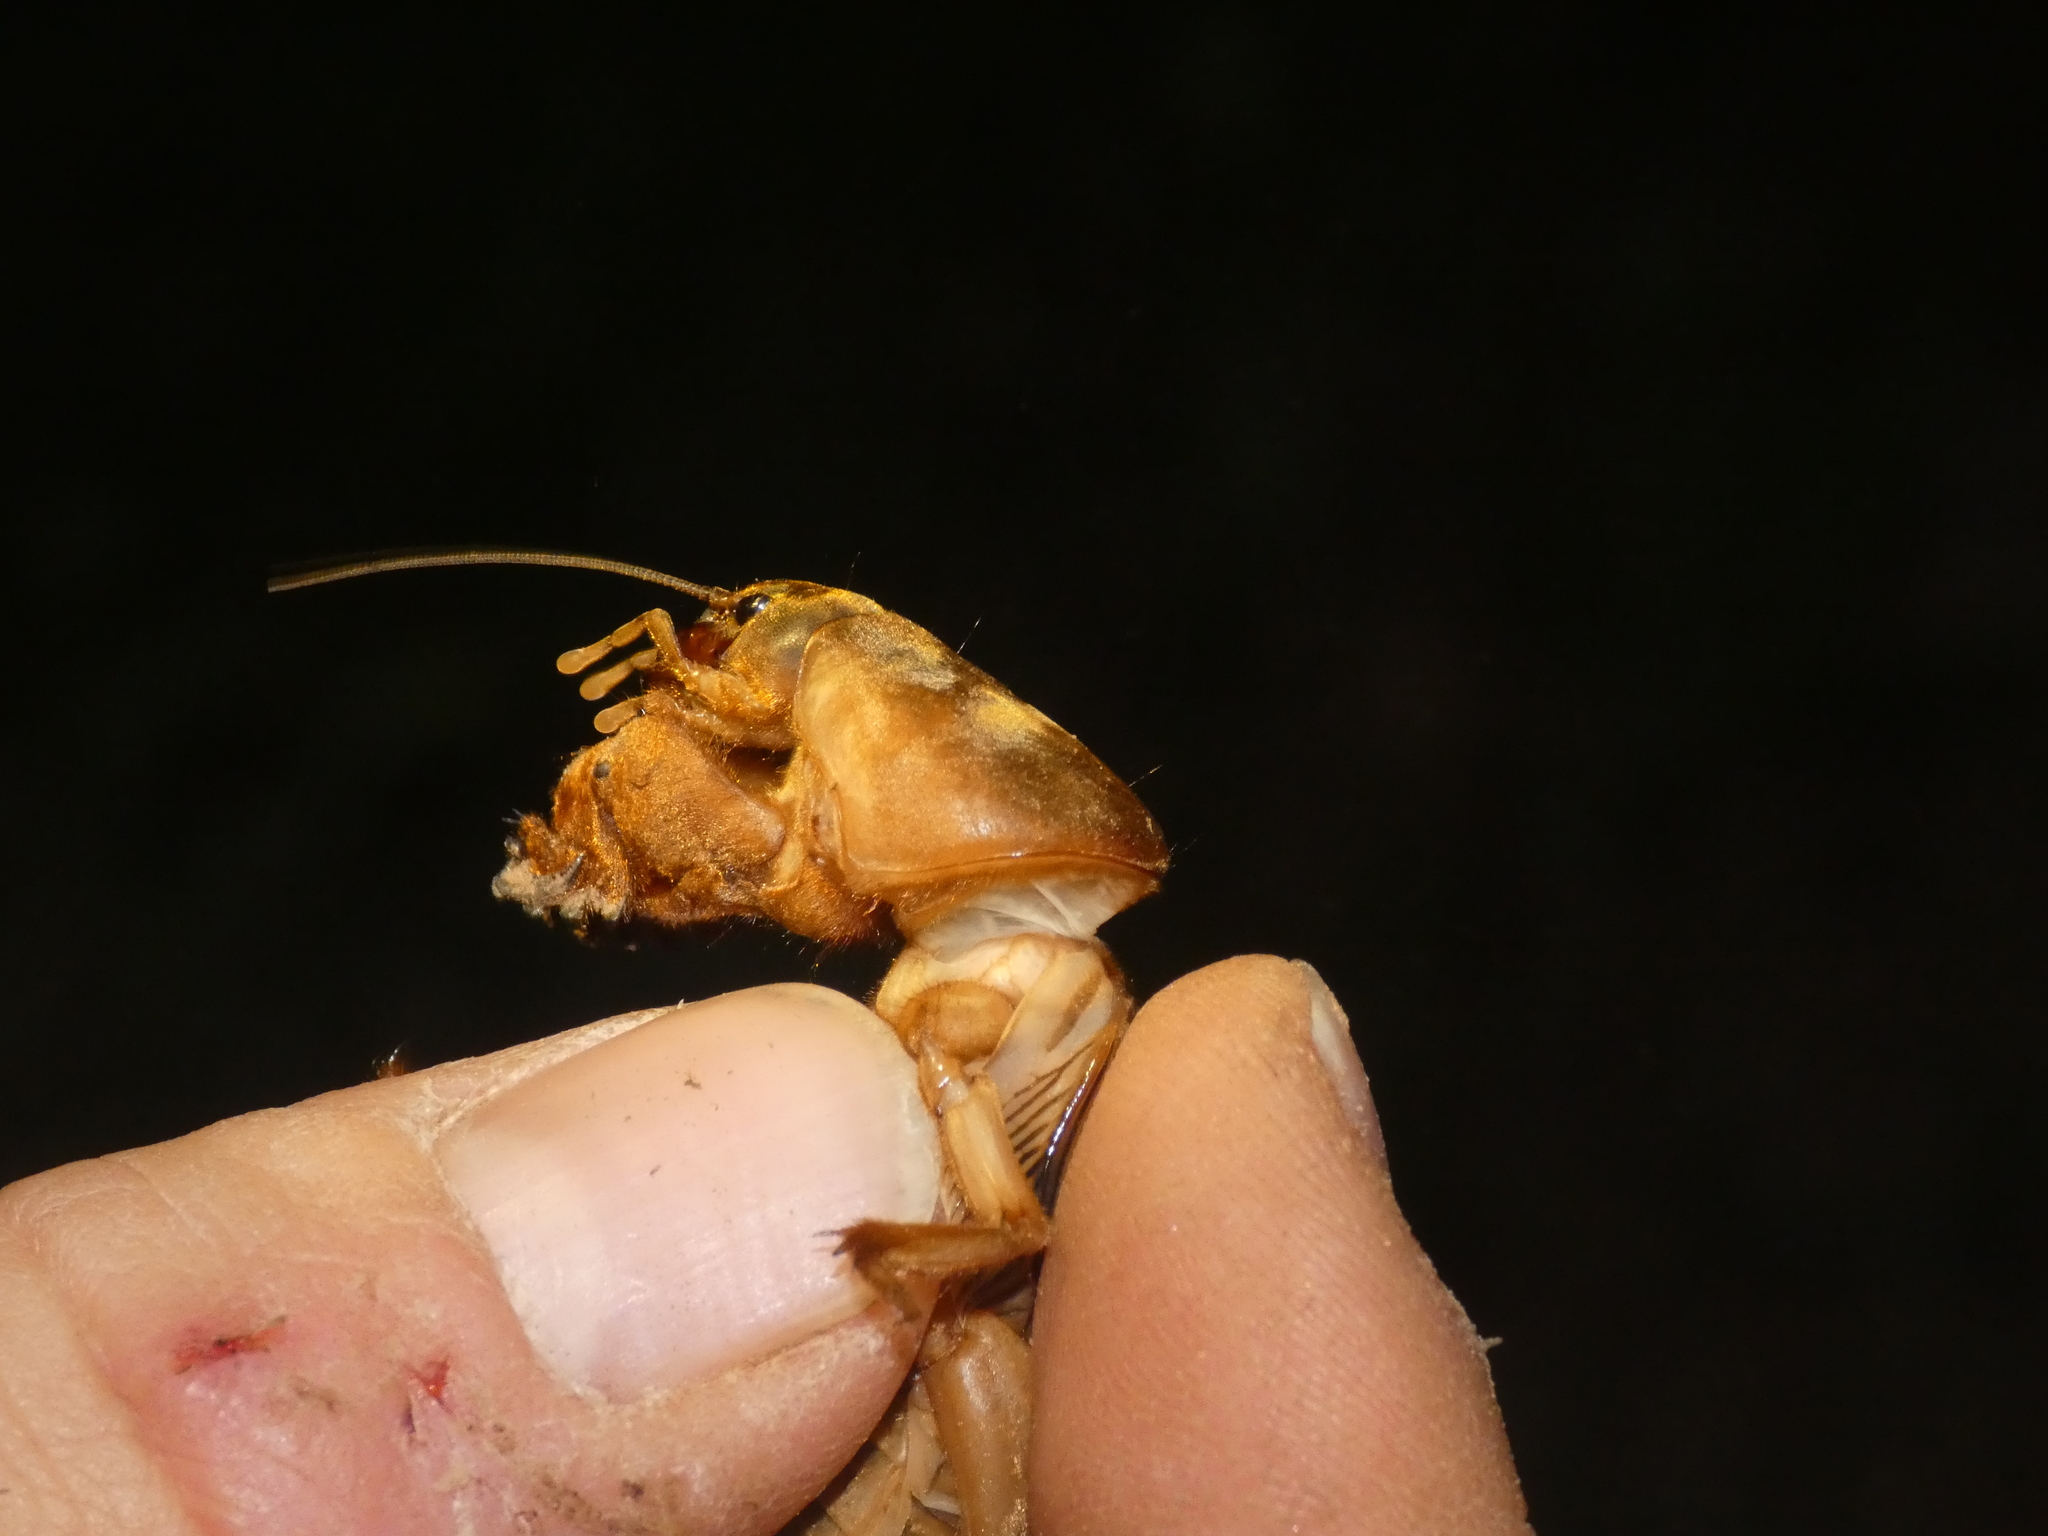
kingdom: Animalia
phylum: Arthropoda
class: Insecta
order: Orthoptera
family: Gryllotalpidae
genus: Gryllotalpa
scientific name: Gryllotalpa vineae
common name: Vineyard mole-cricket
